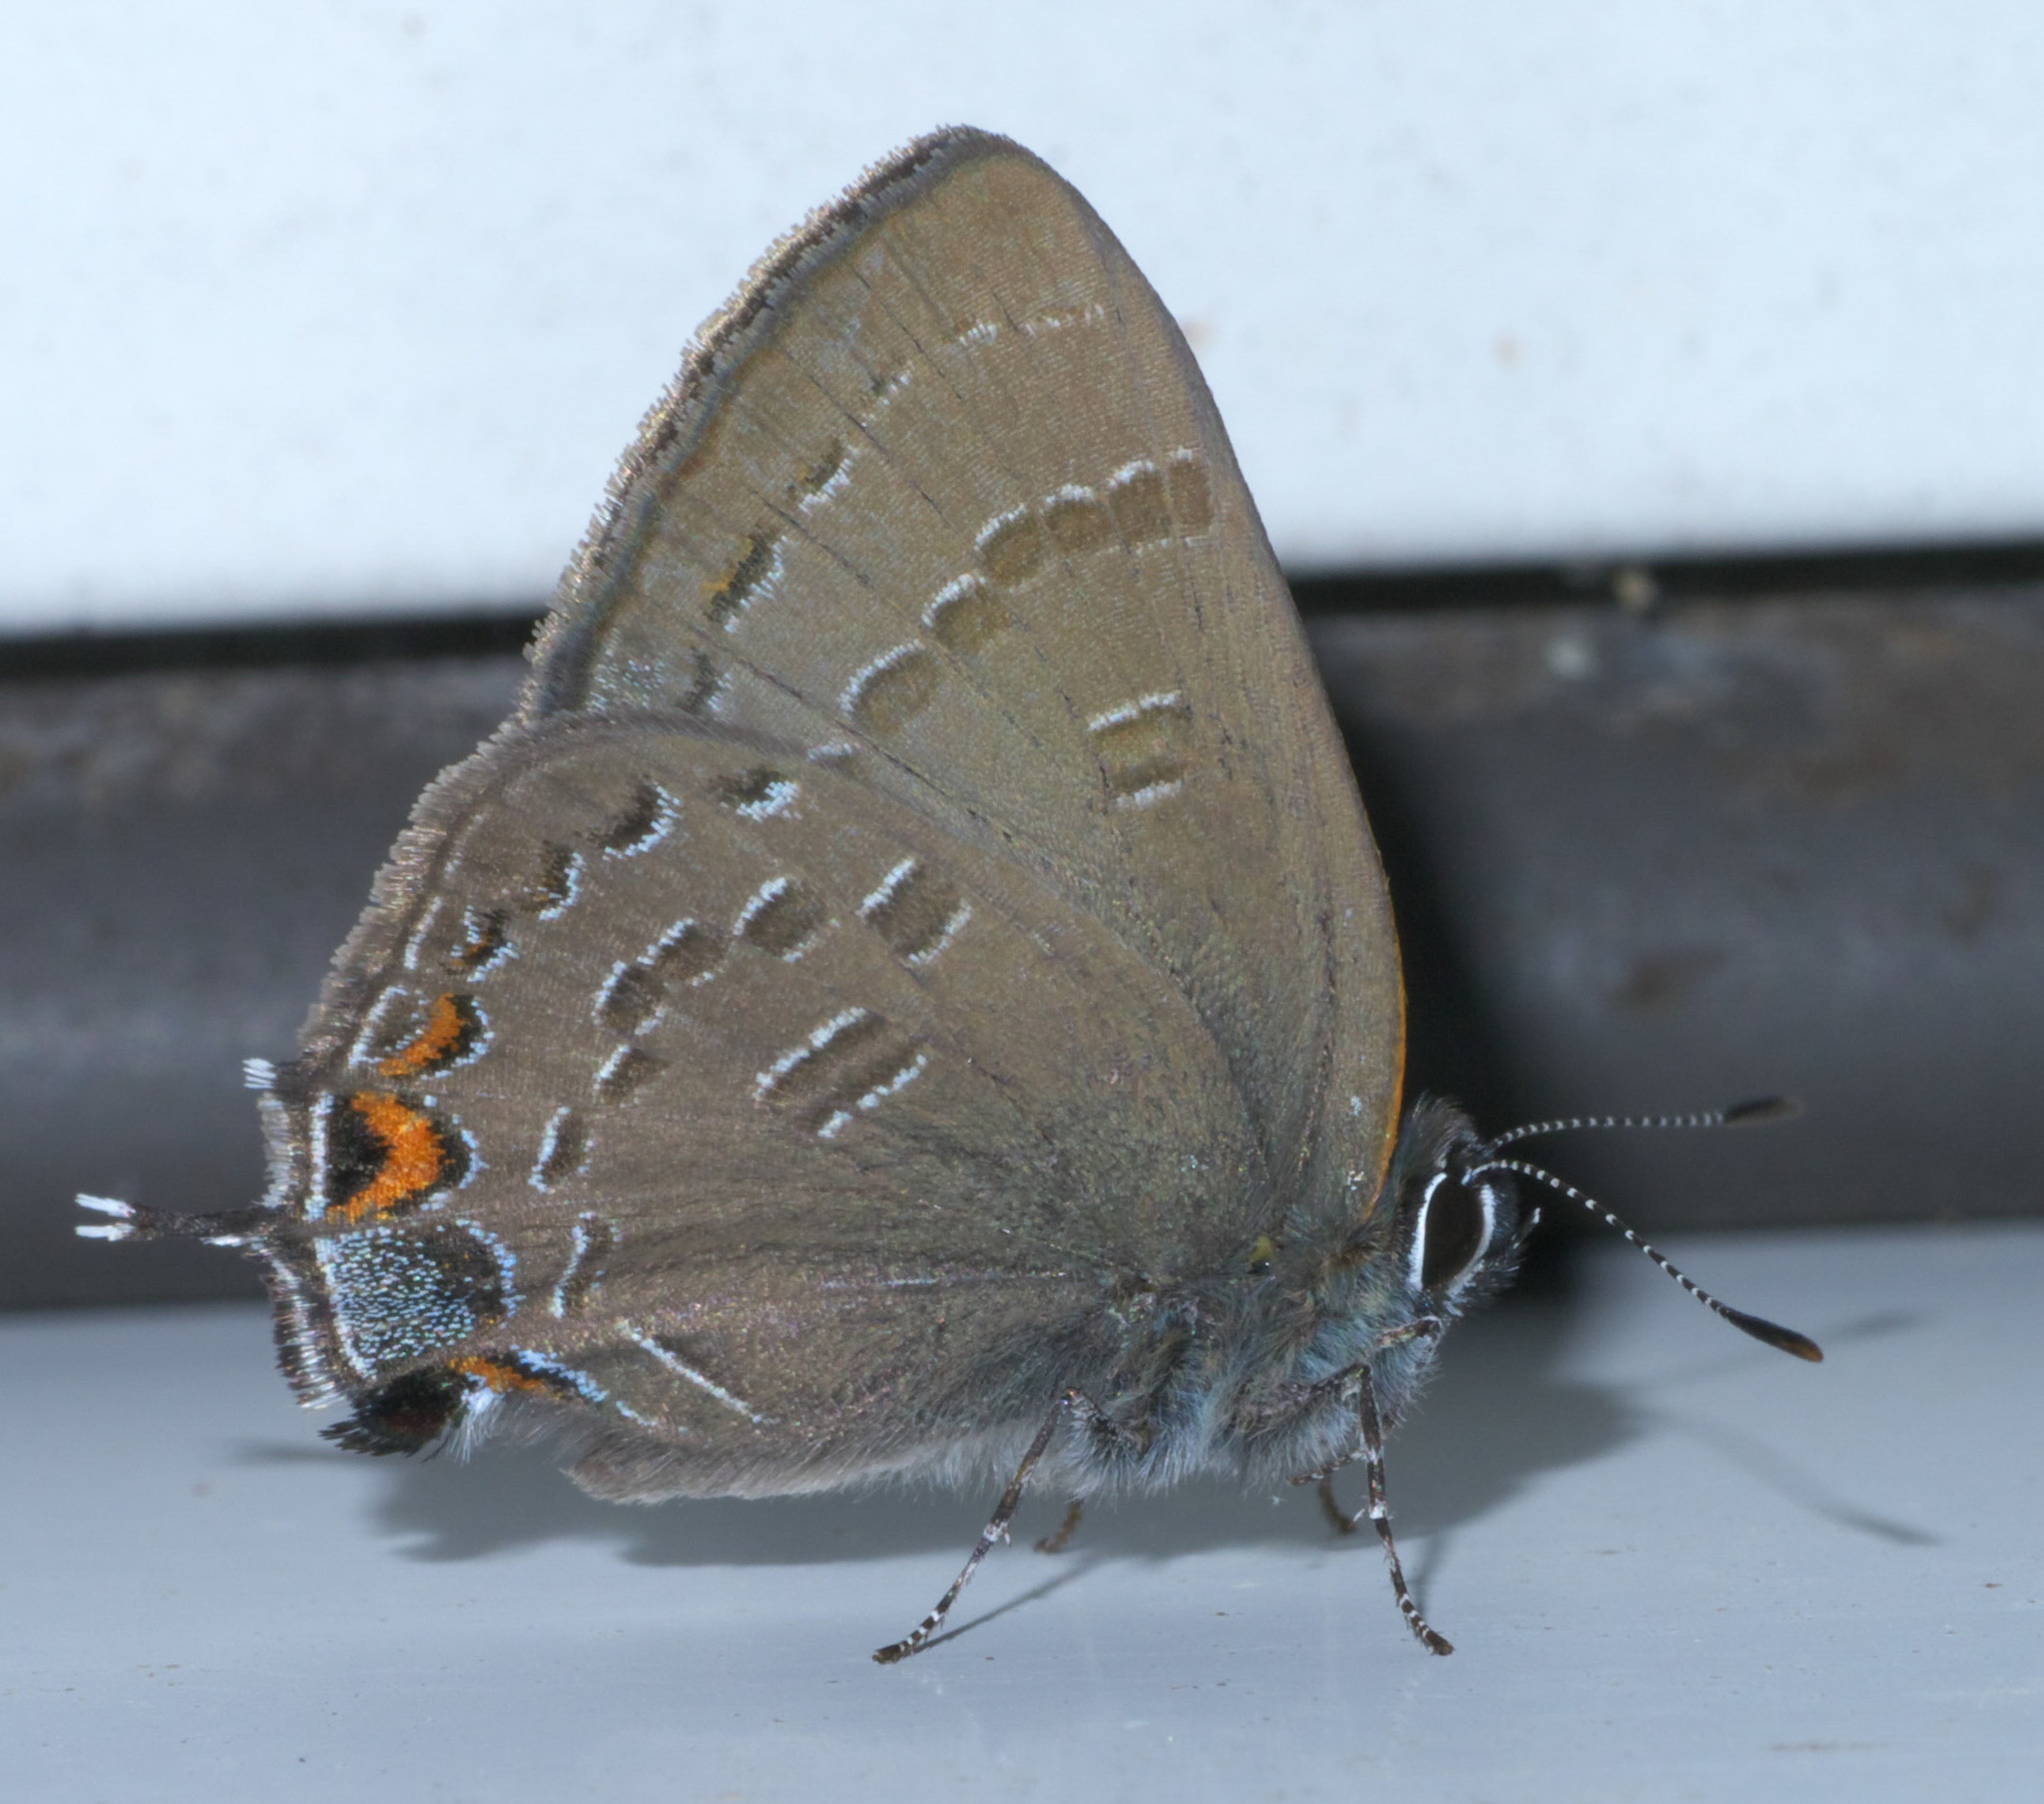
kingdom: Animalia
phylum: Arthropoda
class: Insecta
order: Lepidoptera
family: Lycaenidae
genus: Satyrium
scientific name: Satyrium calanus
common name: Banded hairstreak
